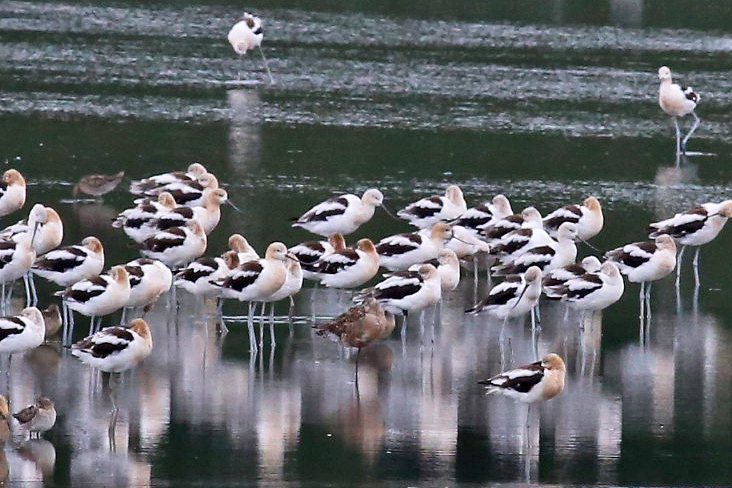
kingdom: Animalia
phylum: Chordata
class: Aves
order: Charadriiformes
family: Scolopacidae
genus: Limosa
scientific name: Limosa haemastica
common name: Hudsonian godwit
